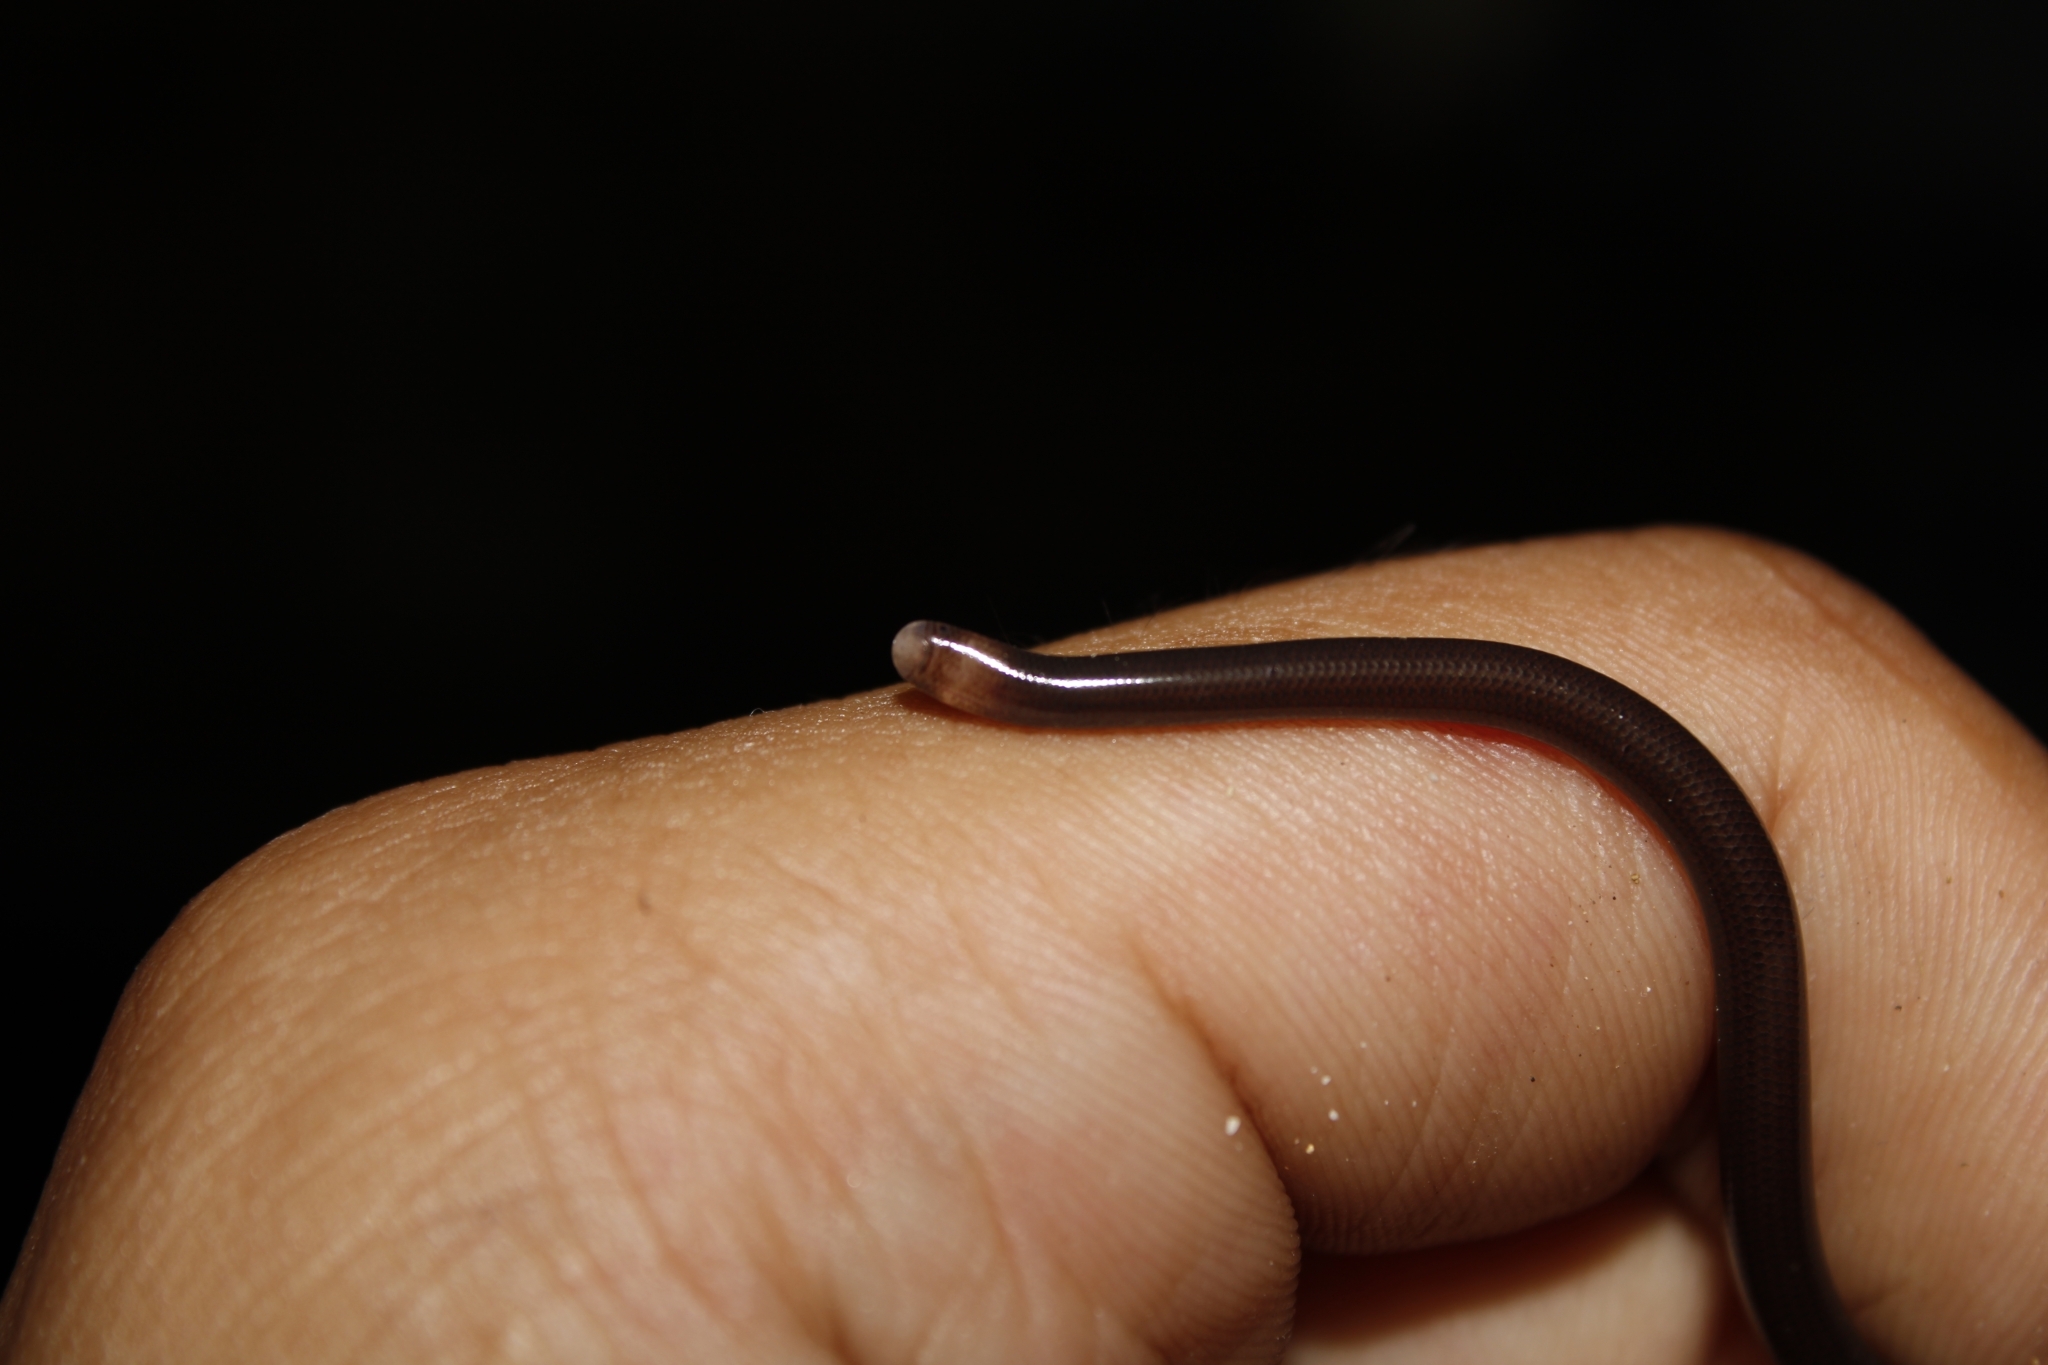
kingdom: Animalia
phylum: Chordata
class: Squamata
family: Anomalepididae
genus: Liotyphlops
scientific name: Liotyphlops albirostris
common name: Whitenose blind snake
